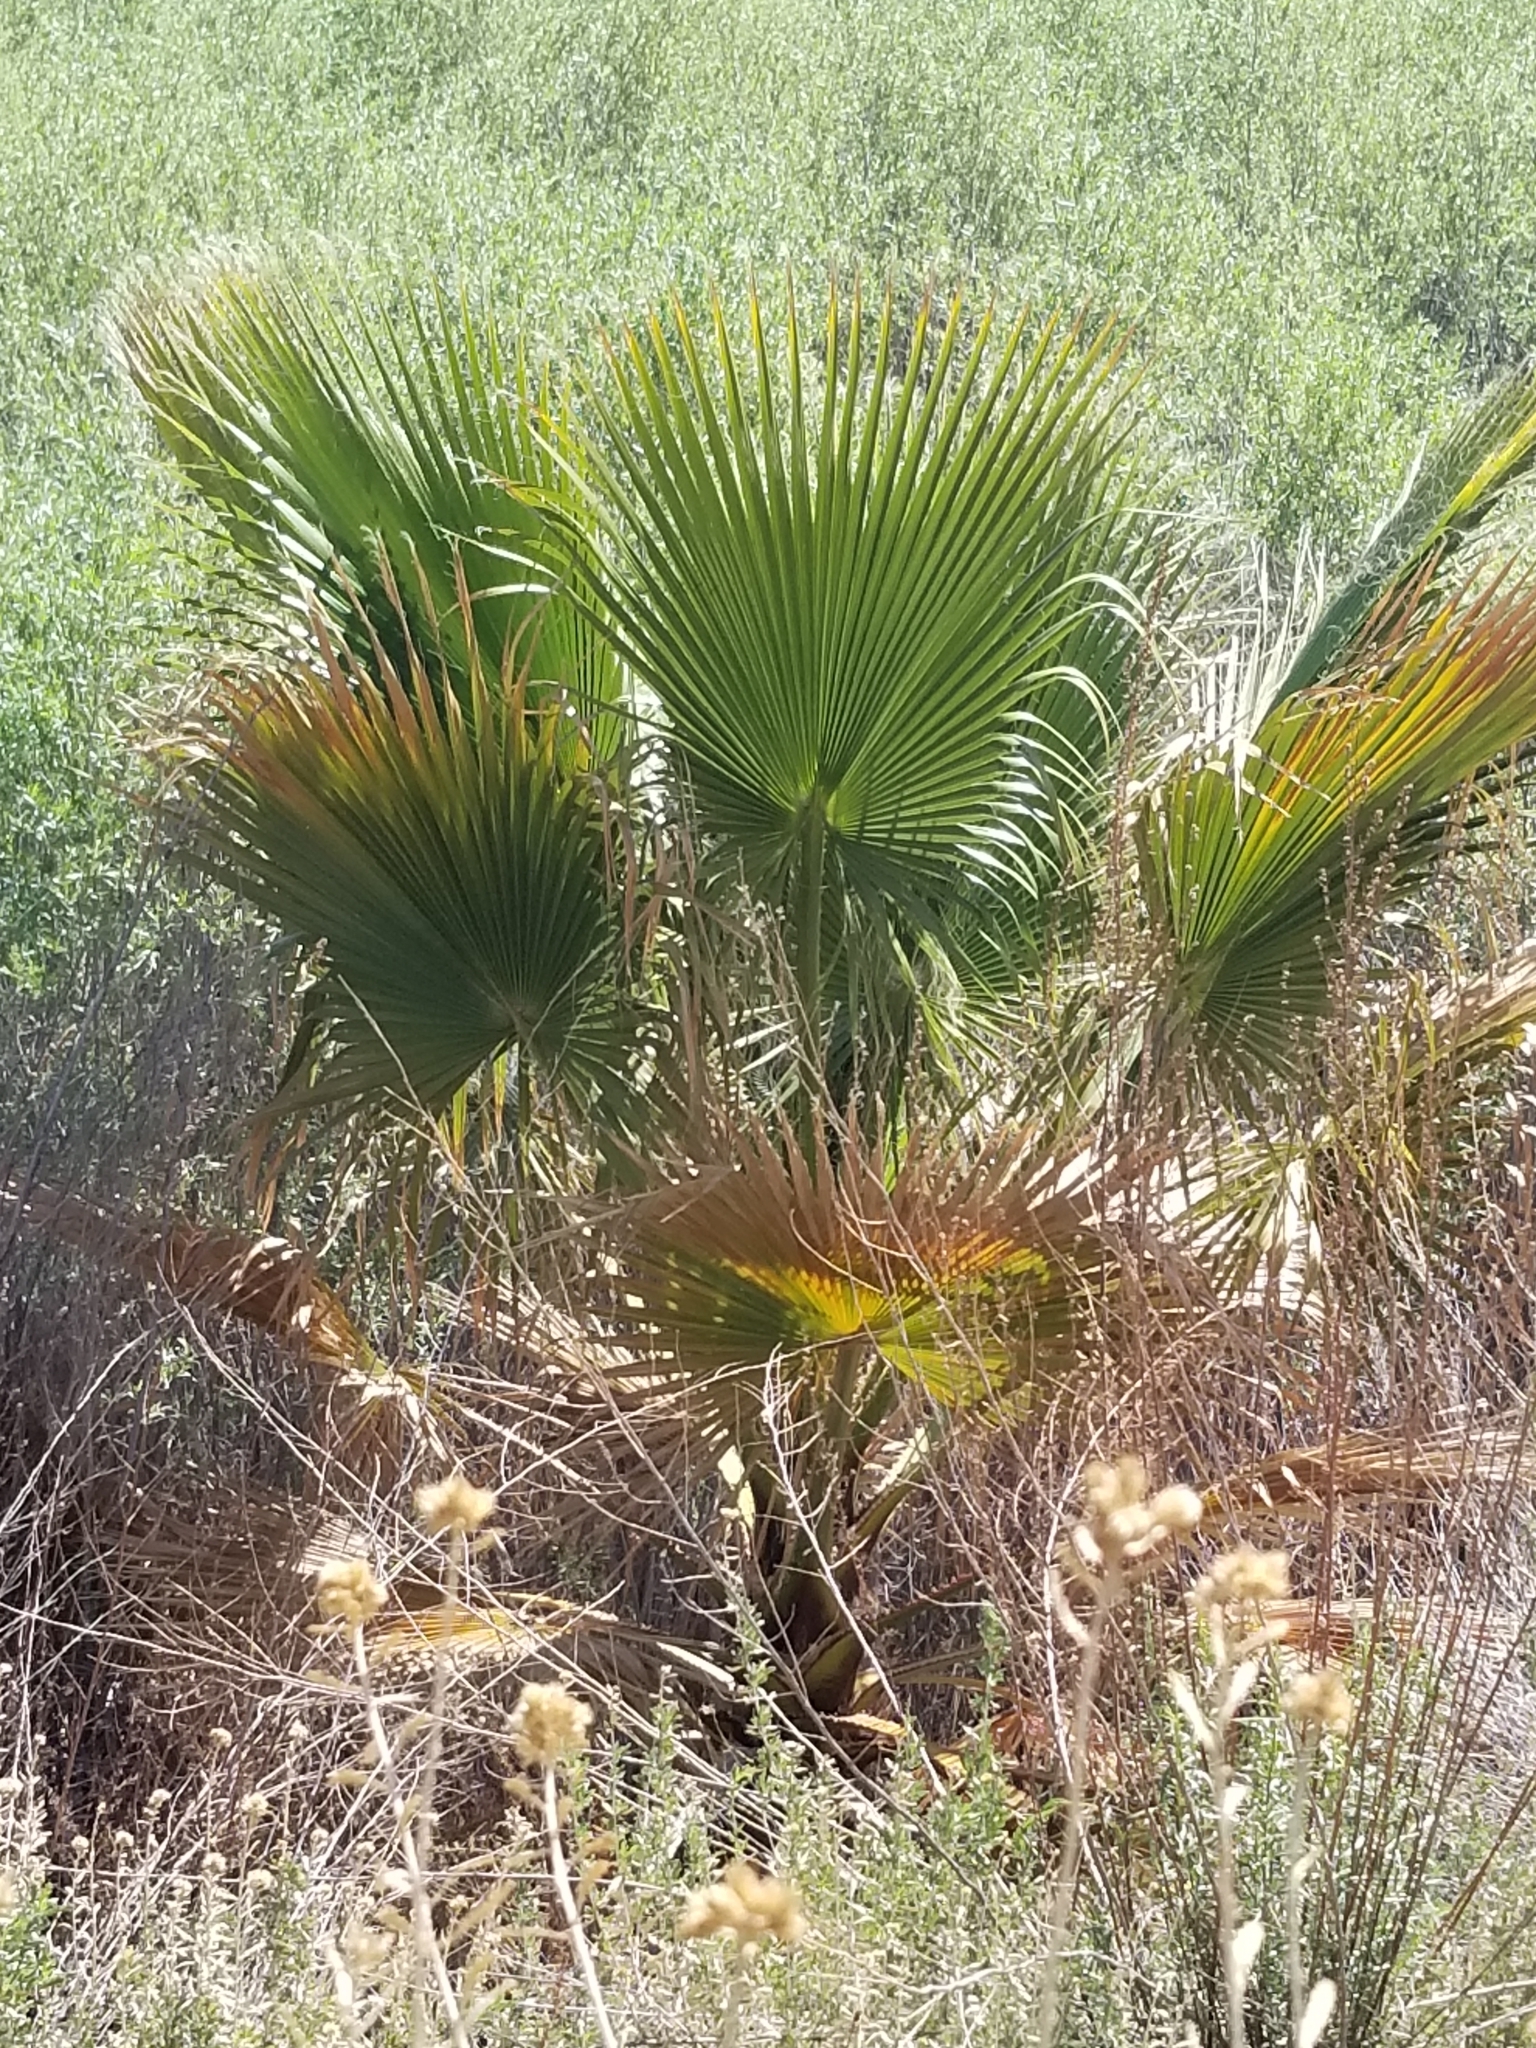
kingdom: Plantae
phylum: Tracheophyta
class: Liliopsida
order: Arecales
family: Arecaceae
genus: Washingtonia
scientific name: Washingtonia filifera
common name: California fan palm
